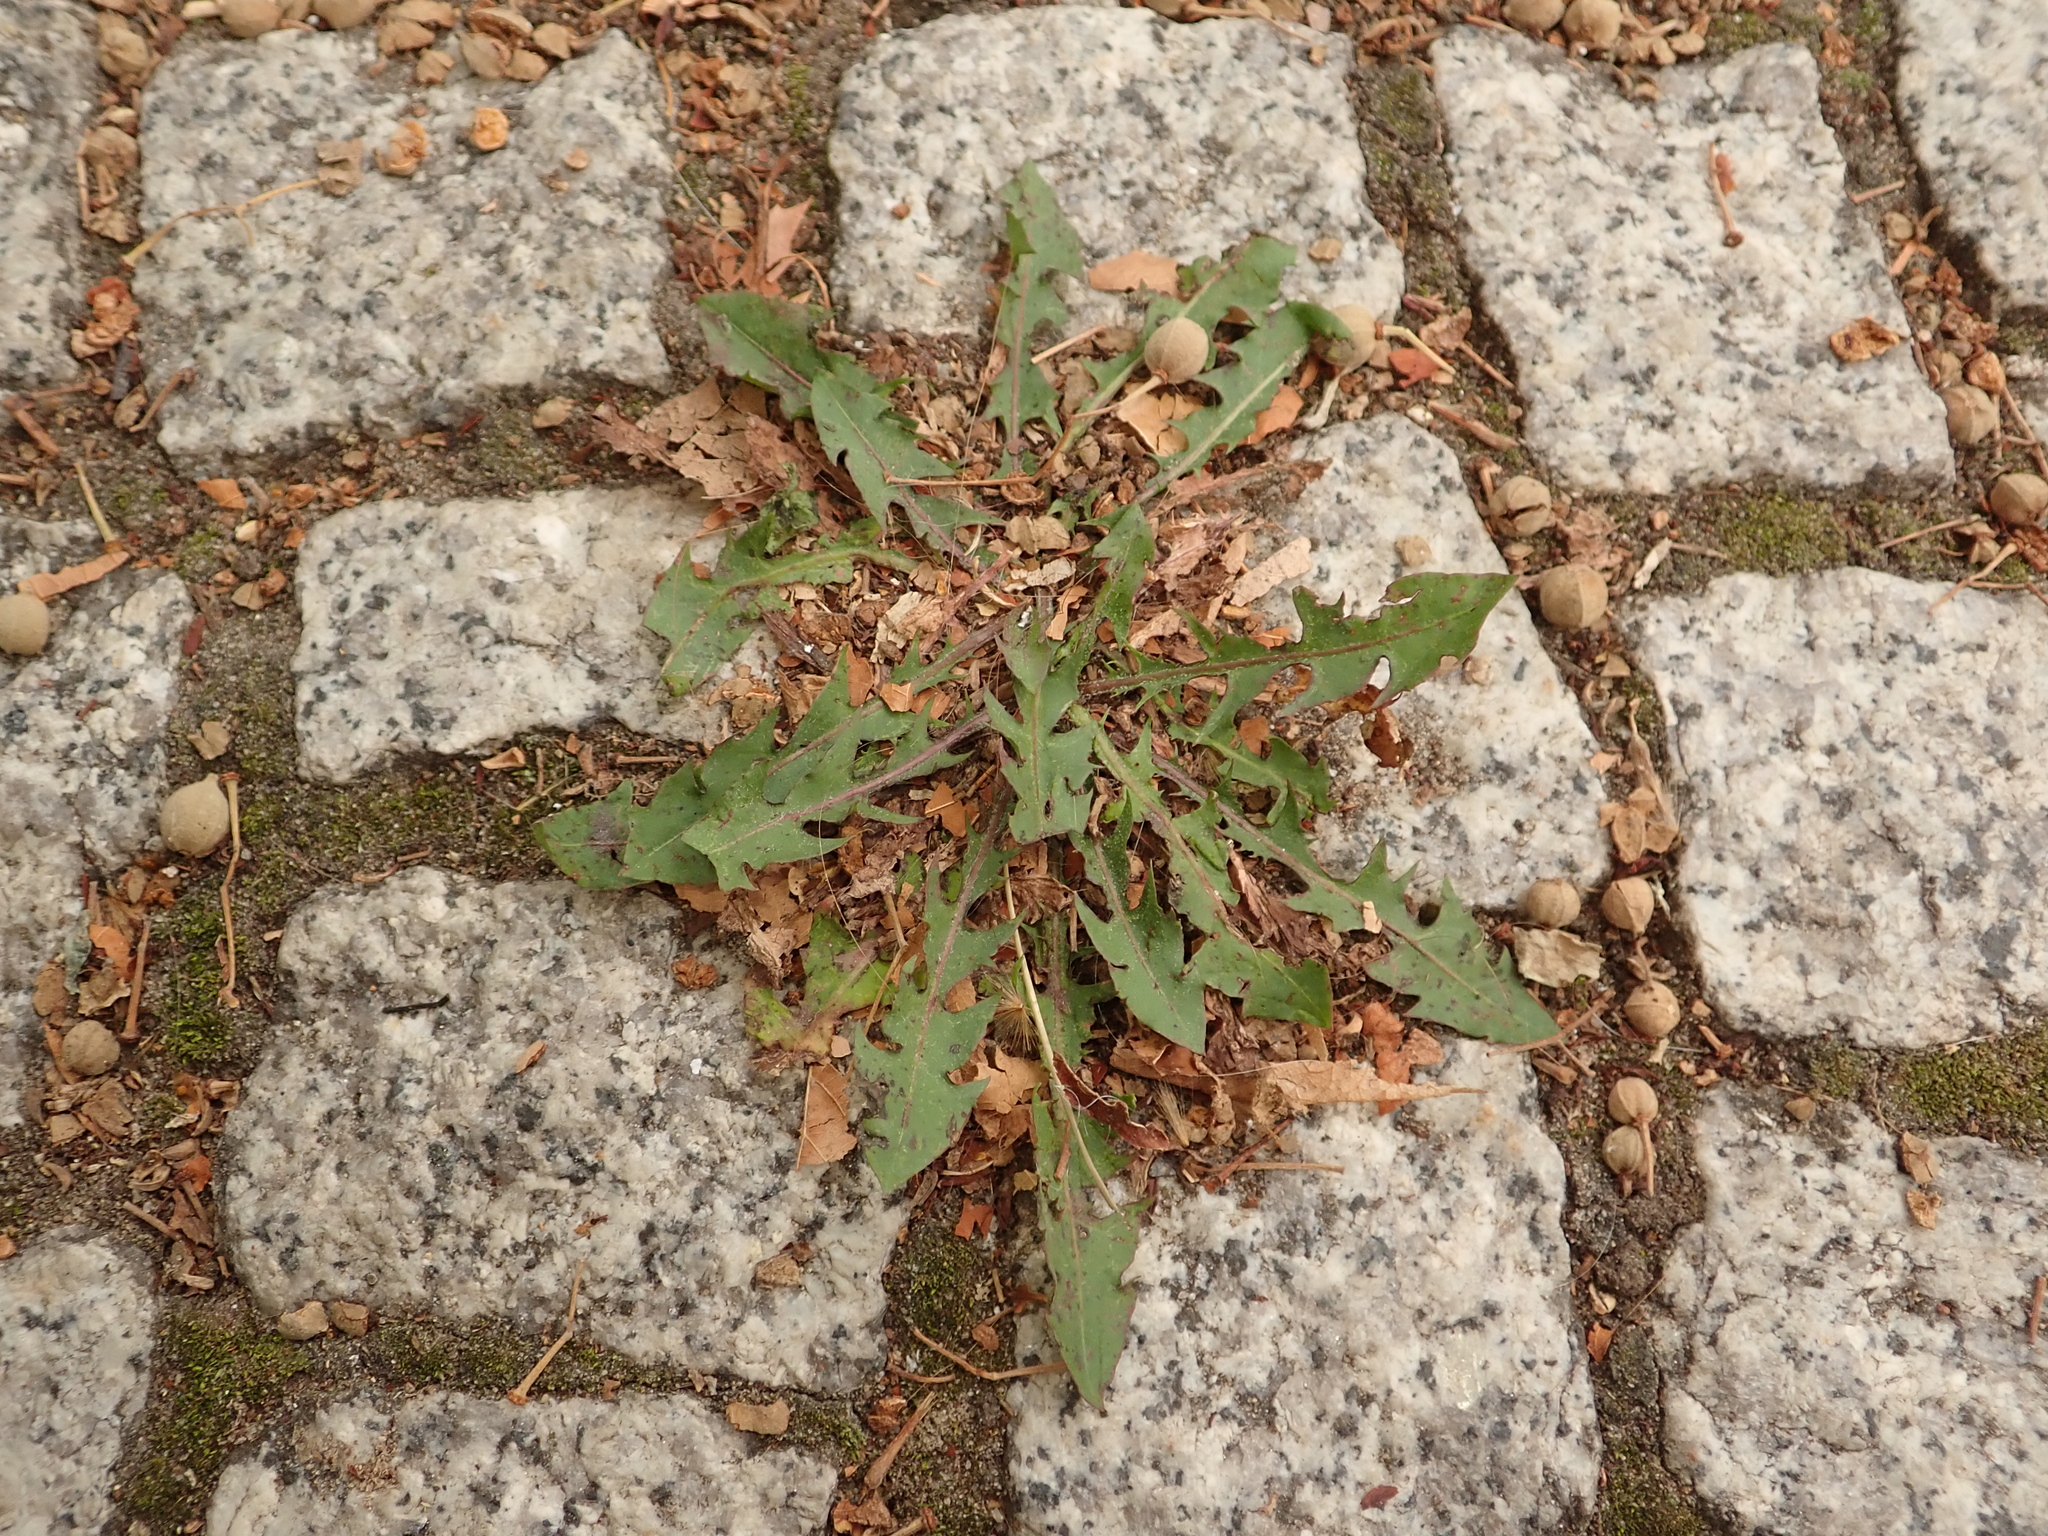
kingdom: Plantae
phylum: Tracheophyta
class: Magnoliopsida
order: Asterales
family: Asteraceae
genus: Taraxacum
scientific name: Taraxacum officinale
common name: Common dandelion
